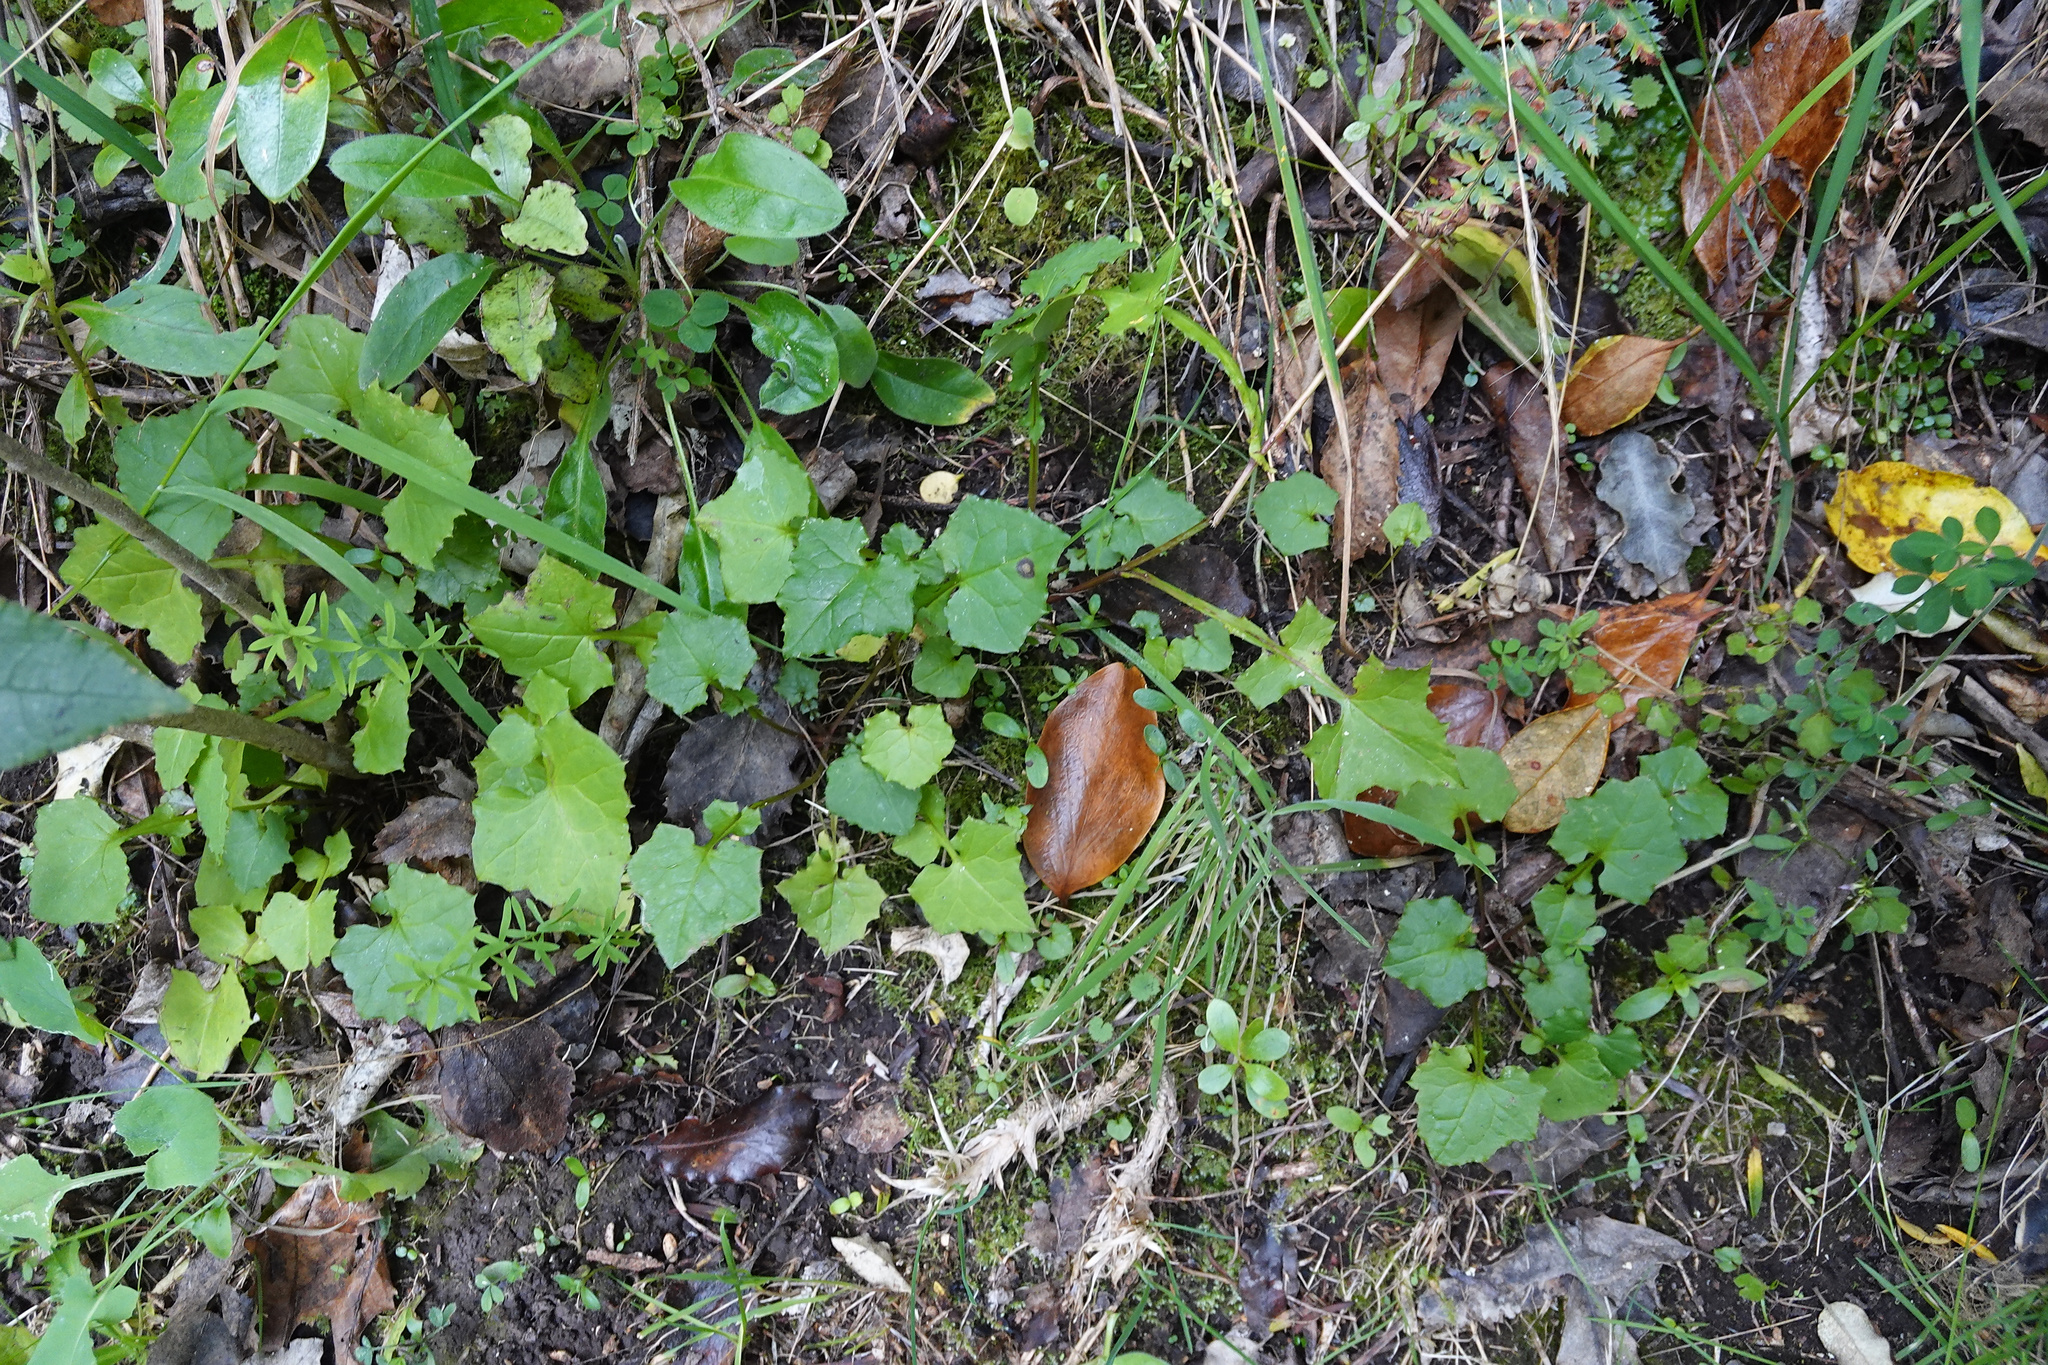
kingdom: Plantae
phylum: Tracheophyta
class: Magnoliopsida
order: Asterales
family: Asteraceae
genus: Mycelis
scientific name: Mycelis muralis
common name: Wall lettuce
